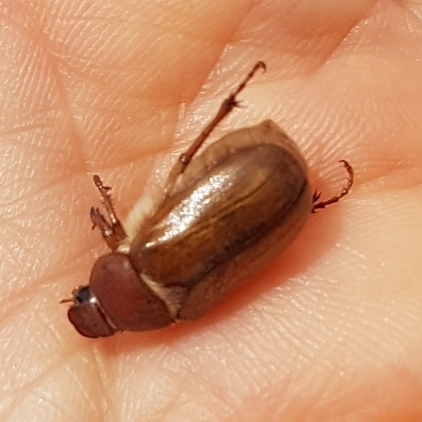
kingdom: Animalia
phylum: Arthropoda
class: Insecta
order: Coleoptera
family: Scarabaeidae
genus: Amphimallon
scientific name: Amphimallon solstitiale
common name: Summer chafer
